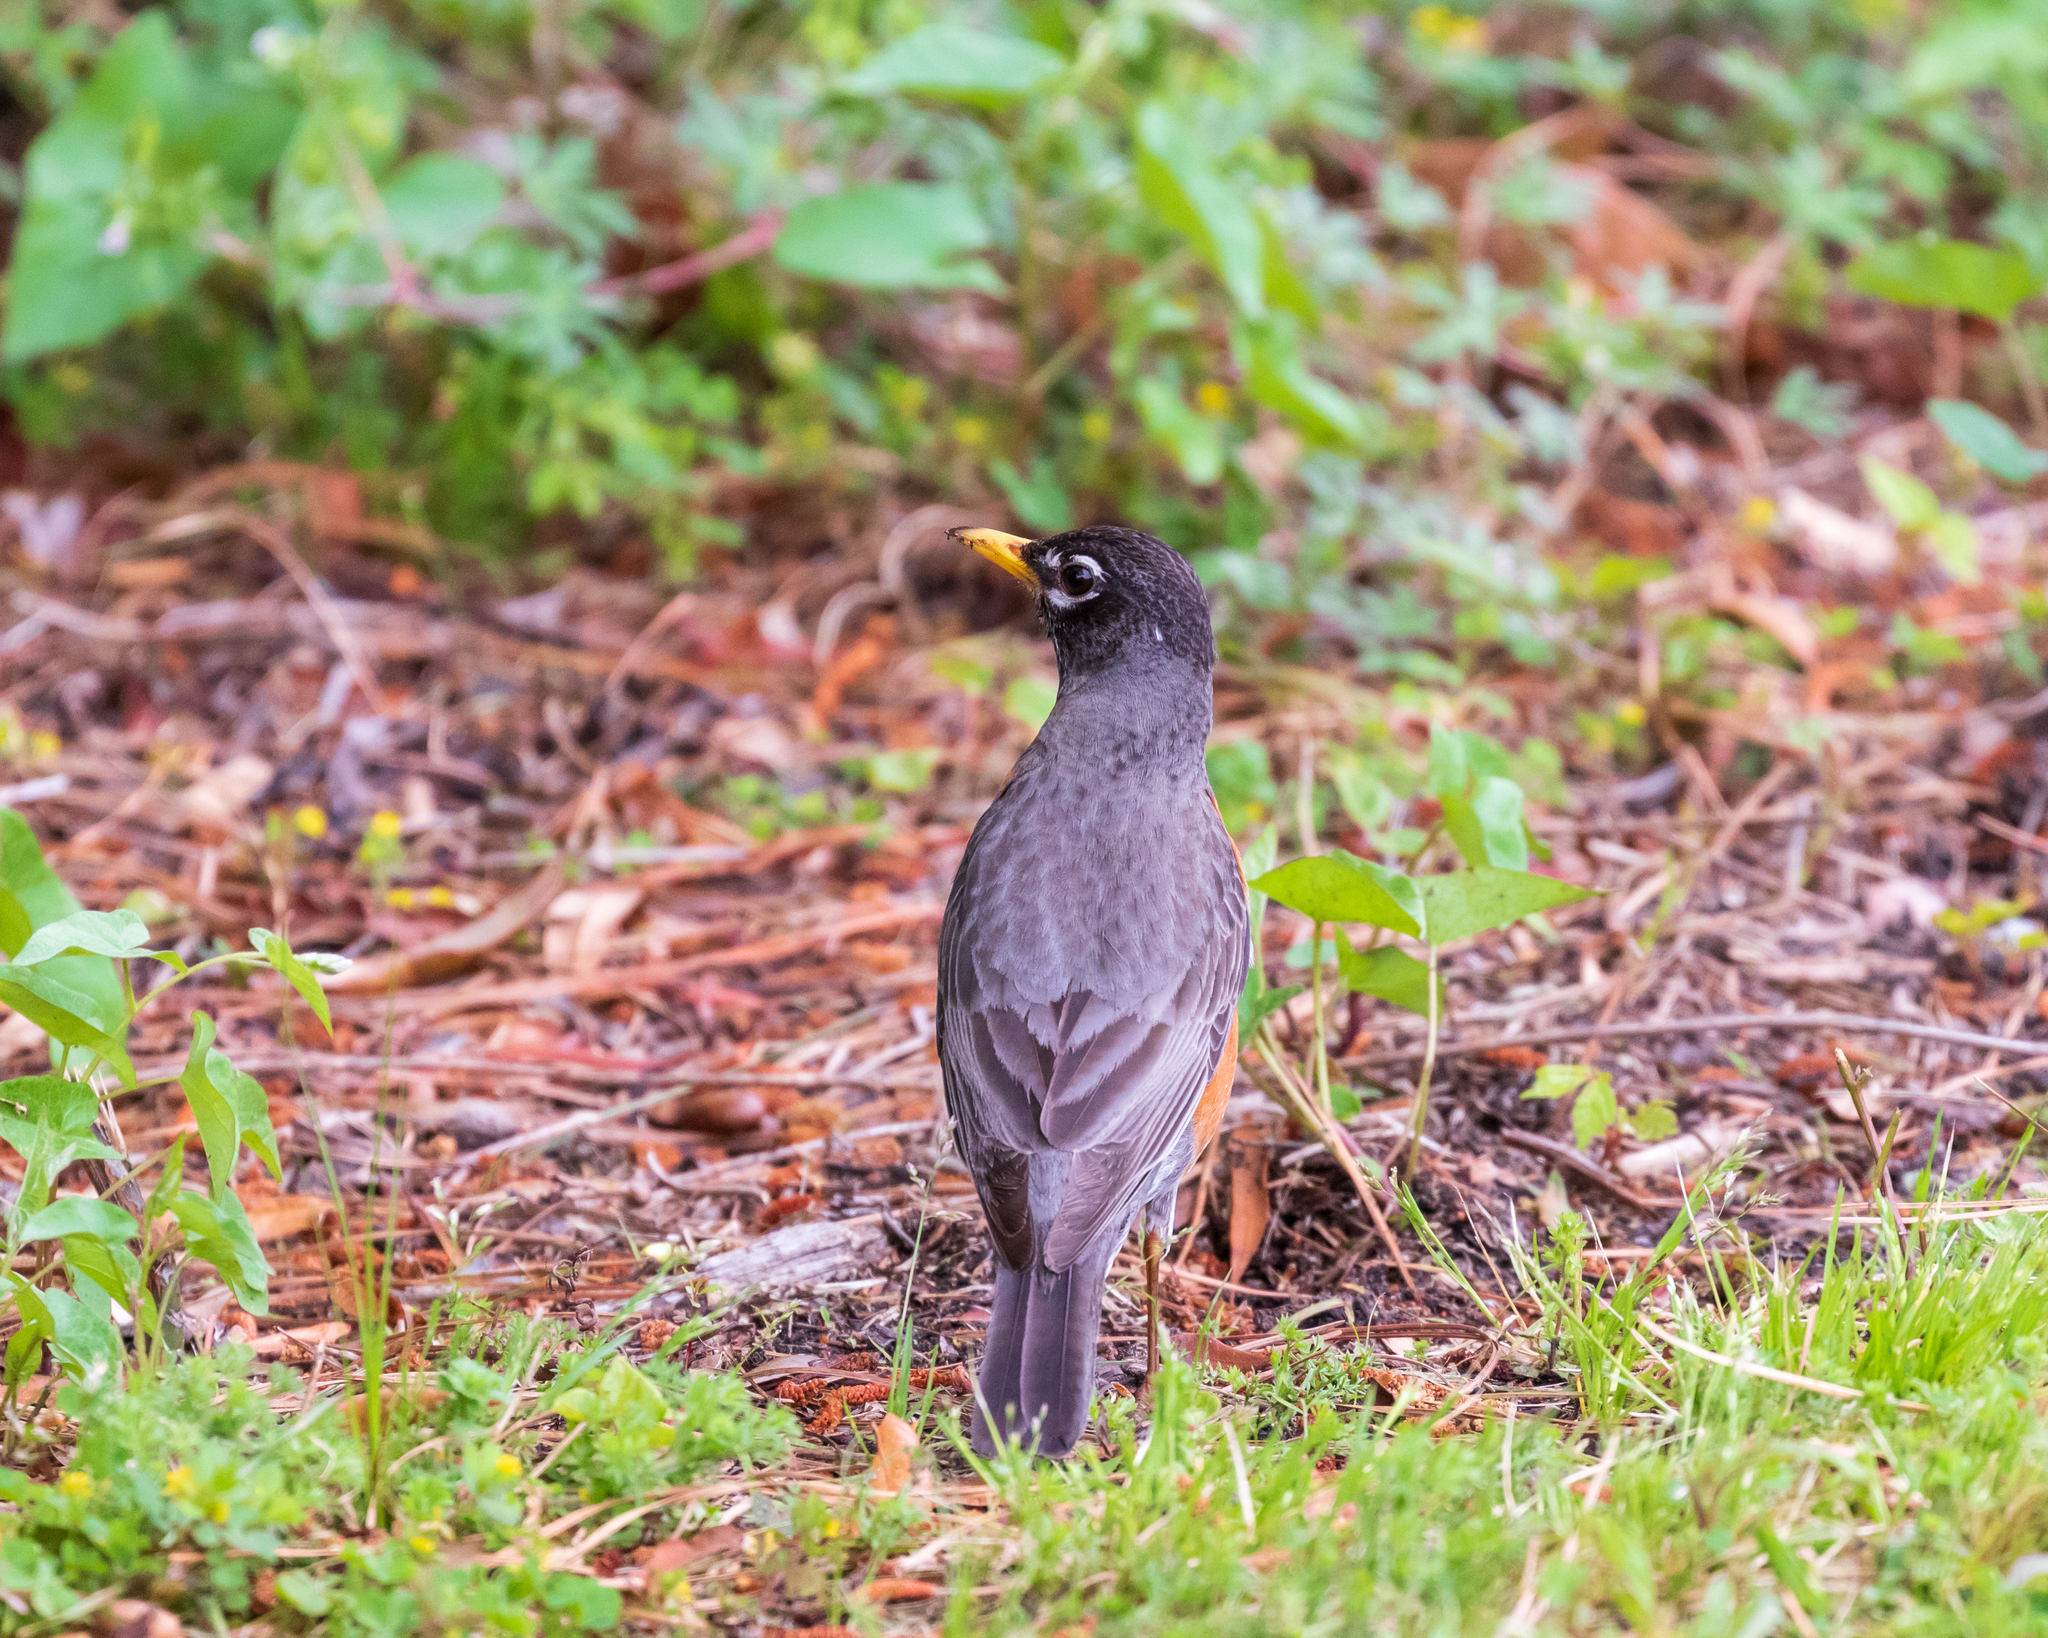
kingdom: Animalia
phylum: Chordata
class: Aves
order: Passeriformes
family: Turdidae
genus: Turdus
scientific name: Turdus migratorius
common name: American robin
